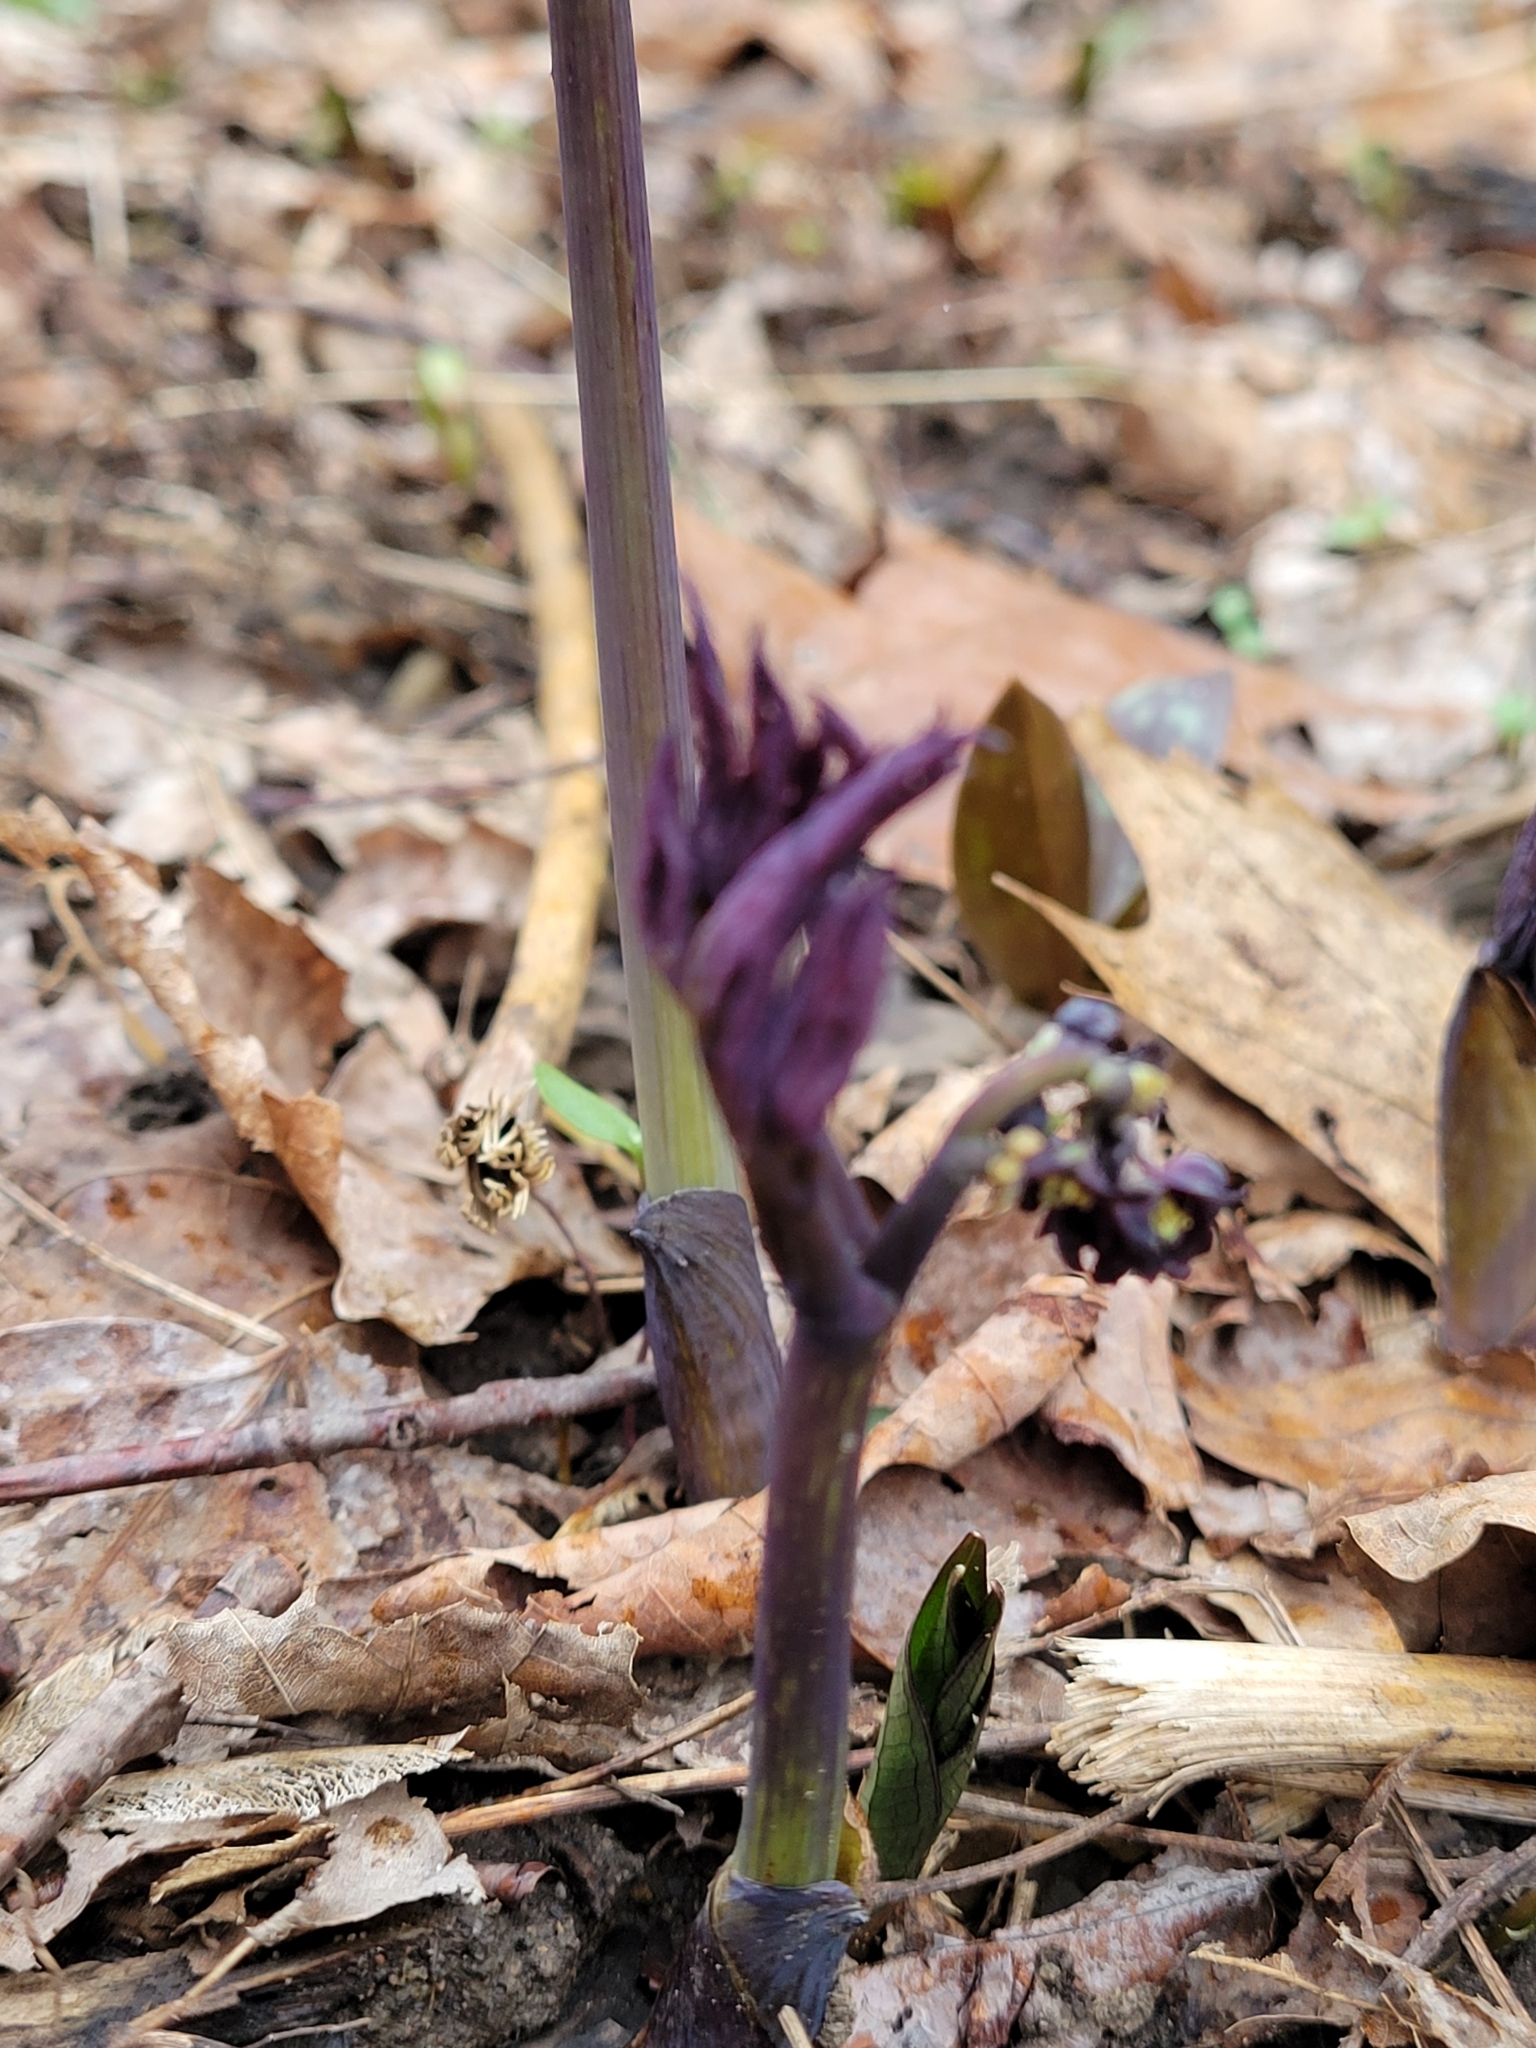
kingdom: Plantae
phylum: Tracheophyta
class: Magnoliopsida
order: Ranunculales
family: Berberidaceae
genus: Caulophyllum
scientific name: Caulophyllum giganteum
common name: Blue cohosh
